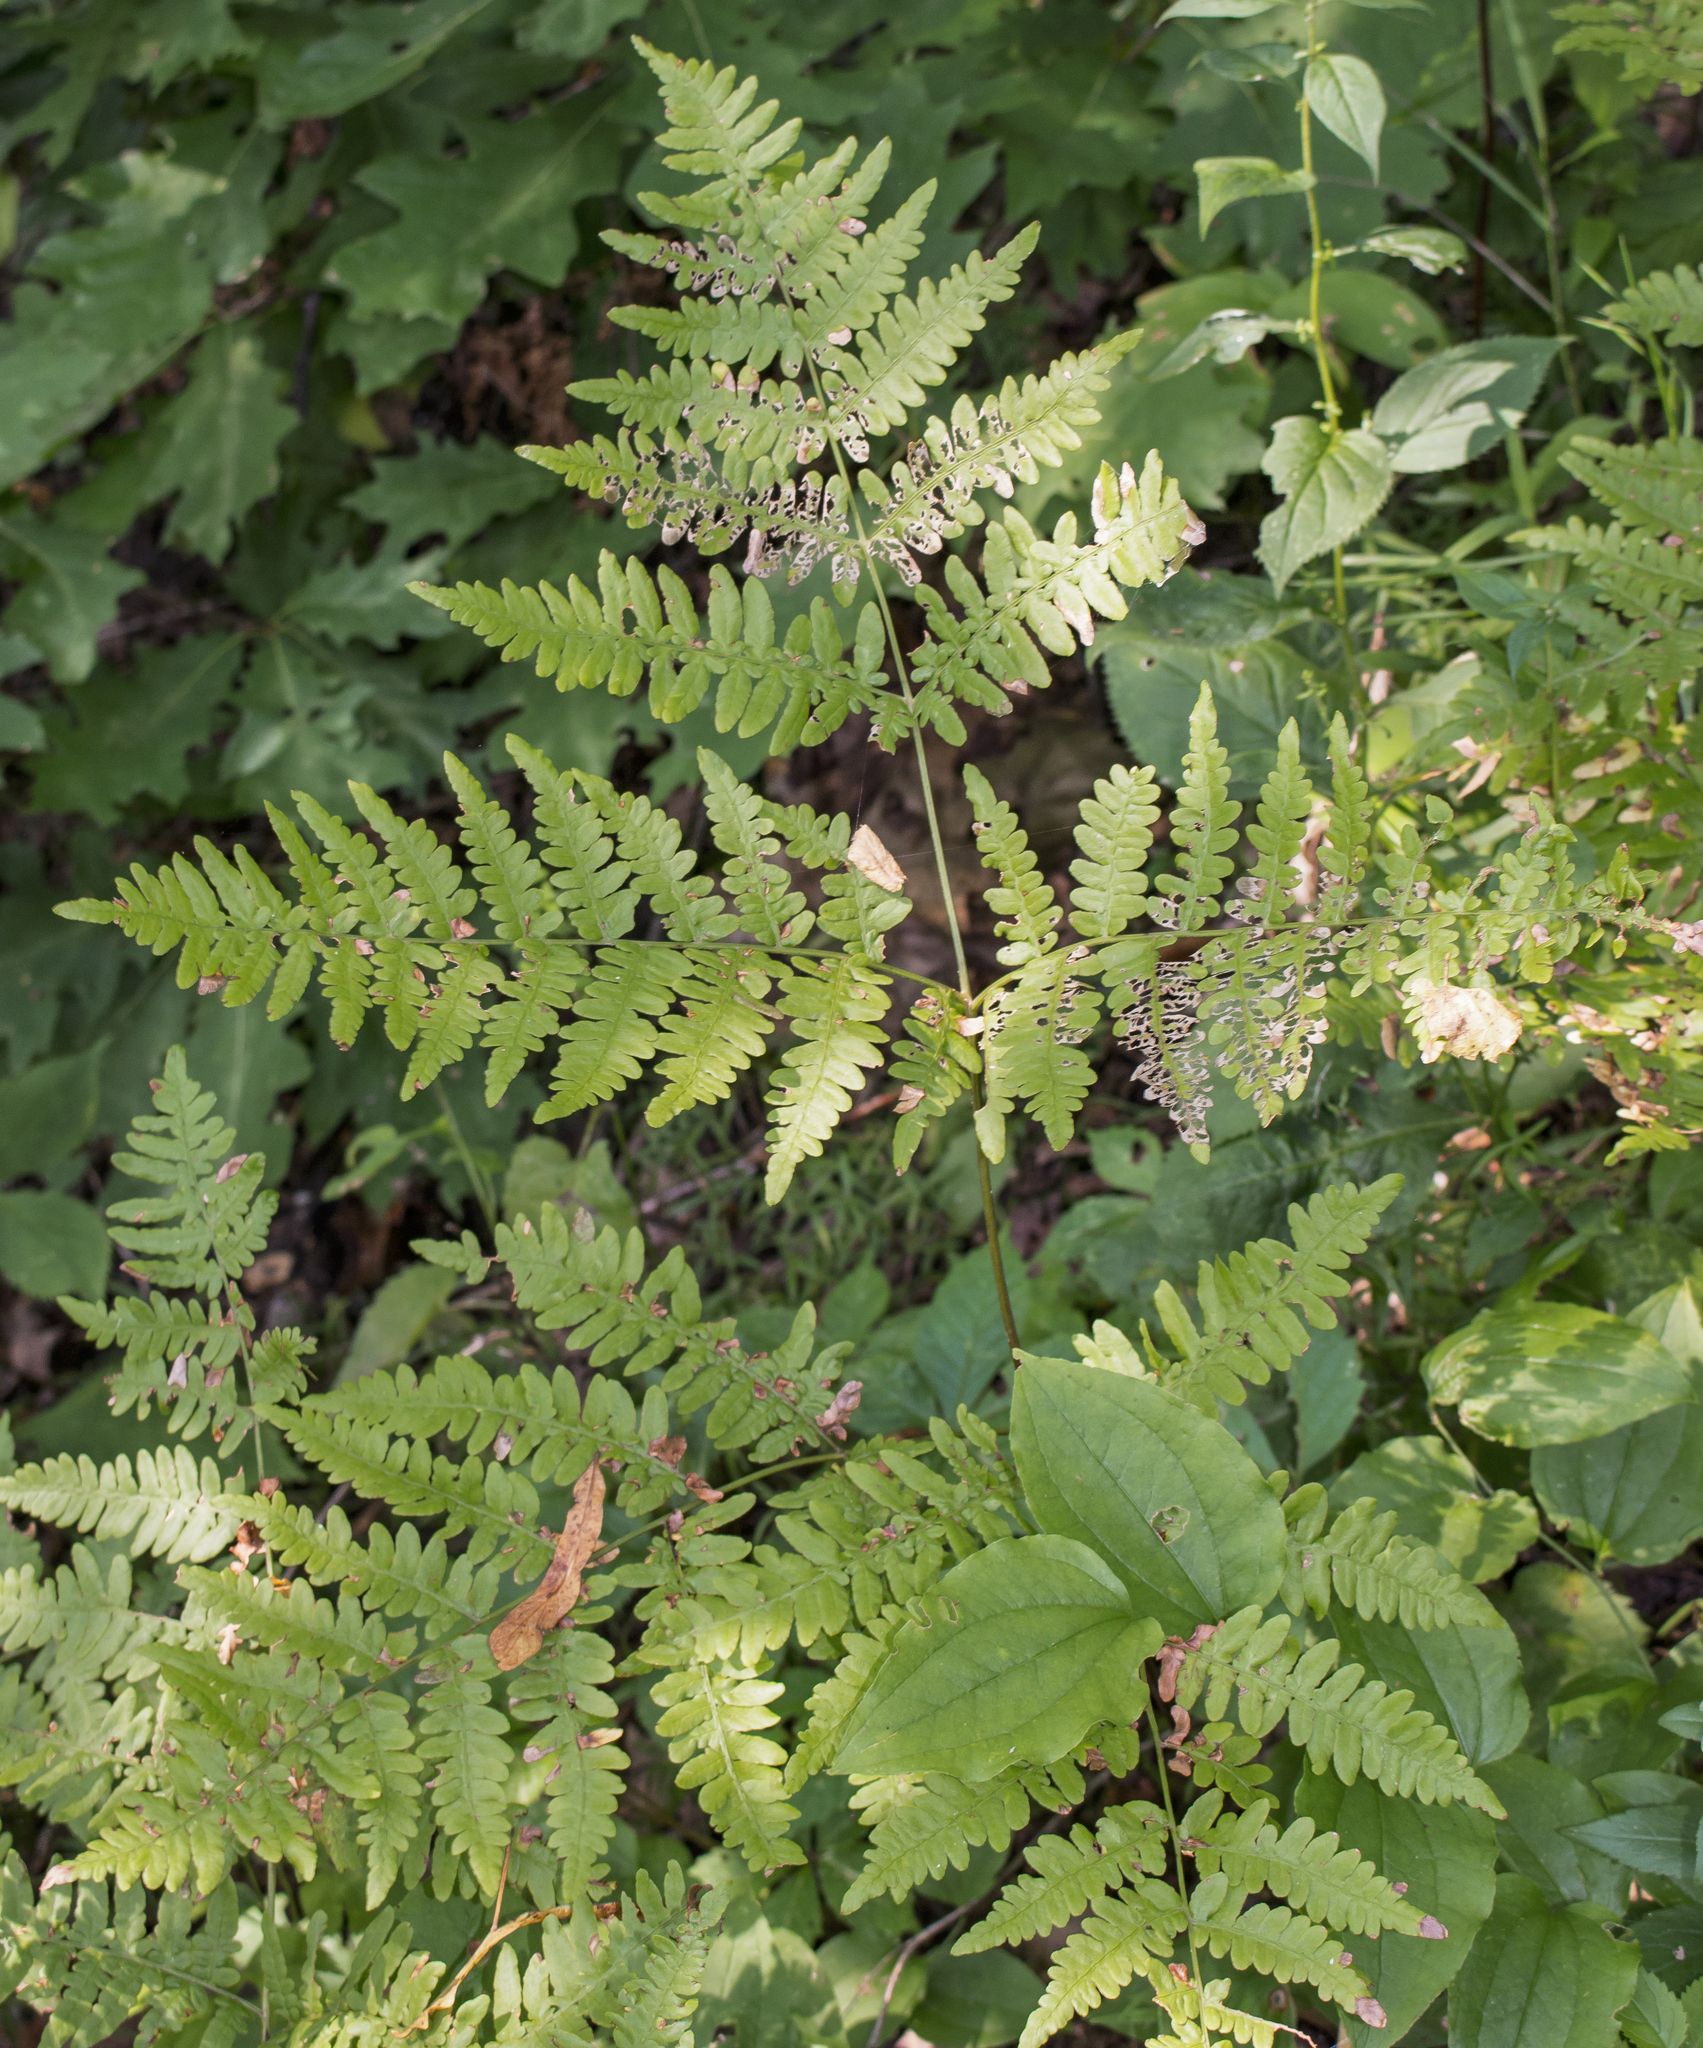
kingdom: Plantae
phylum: Tracheophyta
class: Polypodiopsida
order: Polypodiales
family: Dennstaedtiaceae
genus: Pteridium
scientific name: Pteridium aquilinum
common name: Bracken
